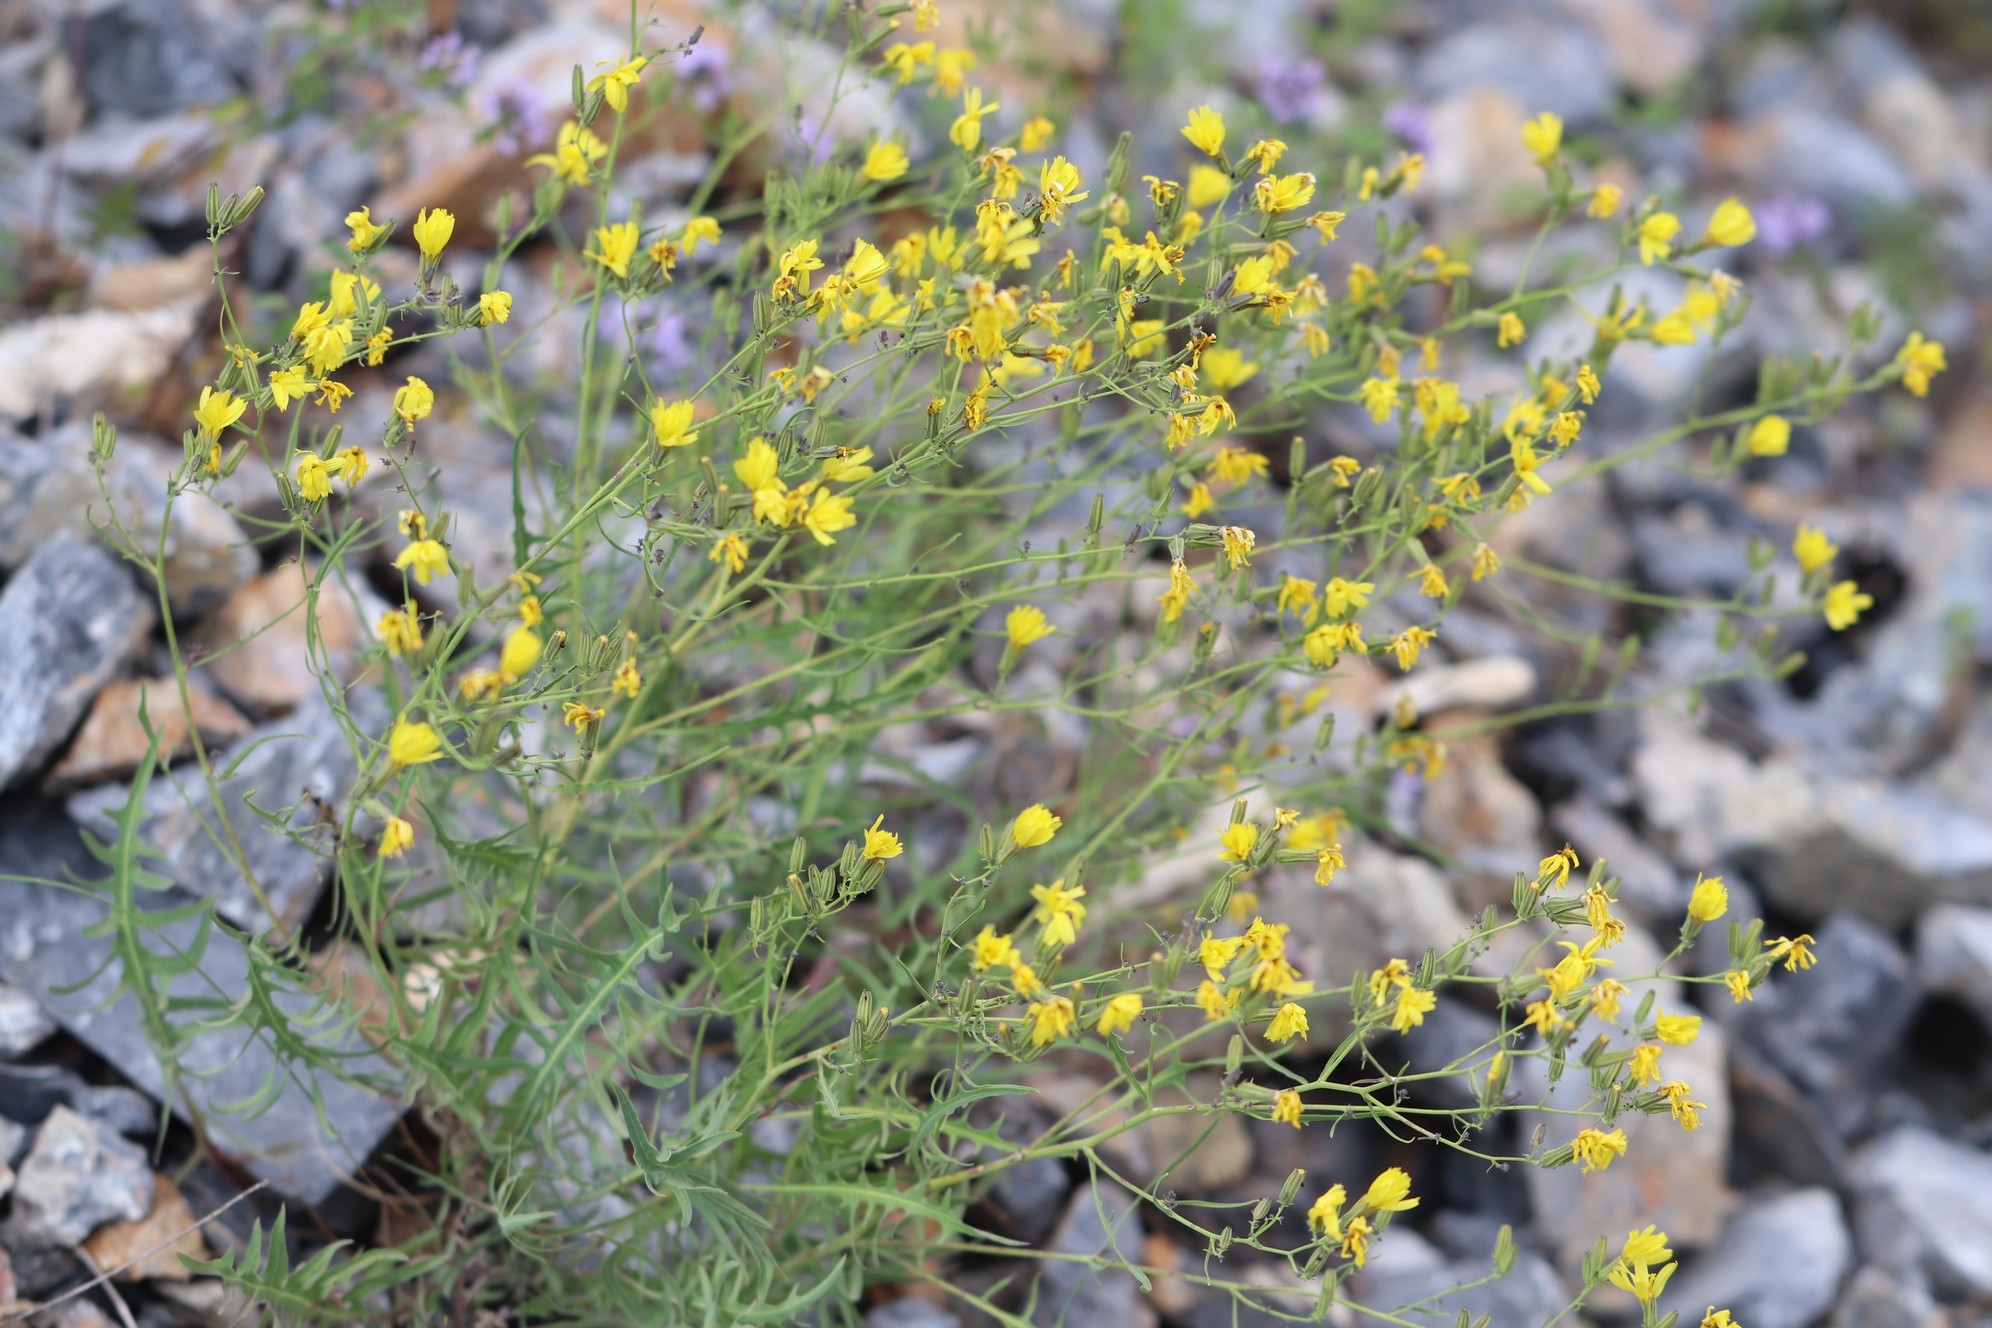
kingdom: Plantae
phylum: Tracheophyta
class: Magnoliopsida
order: Asterales
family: Asteraceae
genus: Crepidiastrum
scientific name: Crepidiastrum tenuifolium
